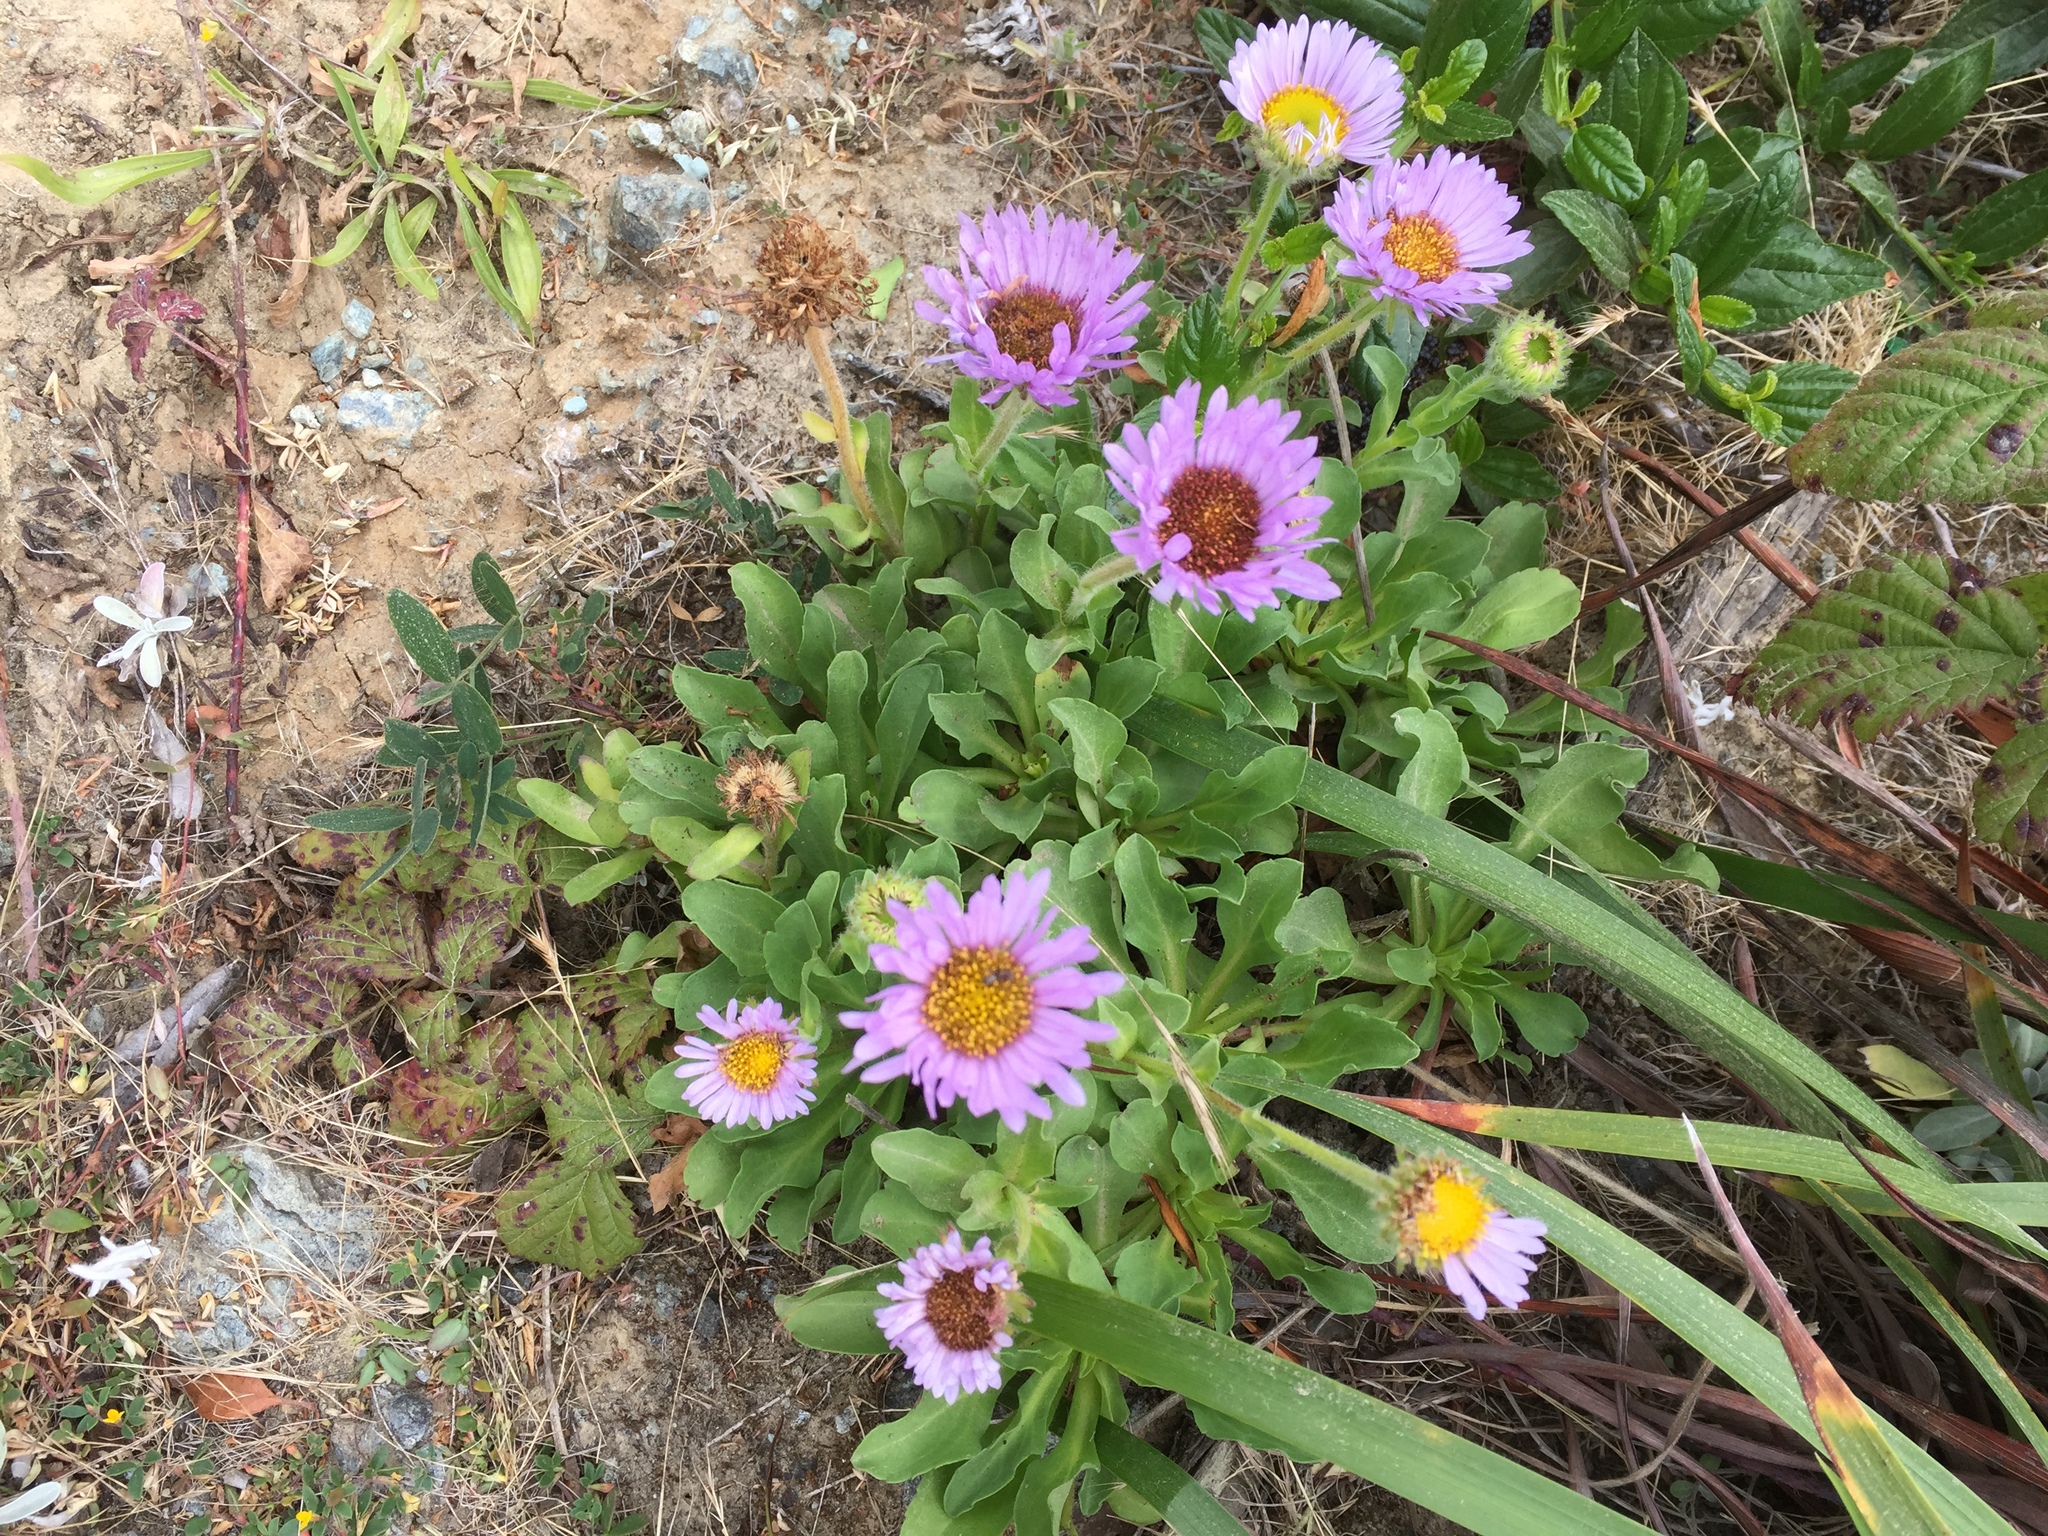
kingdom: Plantae
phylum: Tracheophyta
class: Magnoliopsida
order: Asterales
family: Asteraceae
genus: Erigeron
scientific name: Erigeron glaucus
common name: Seaside daisy
